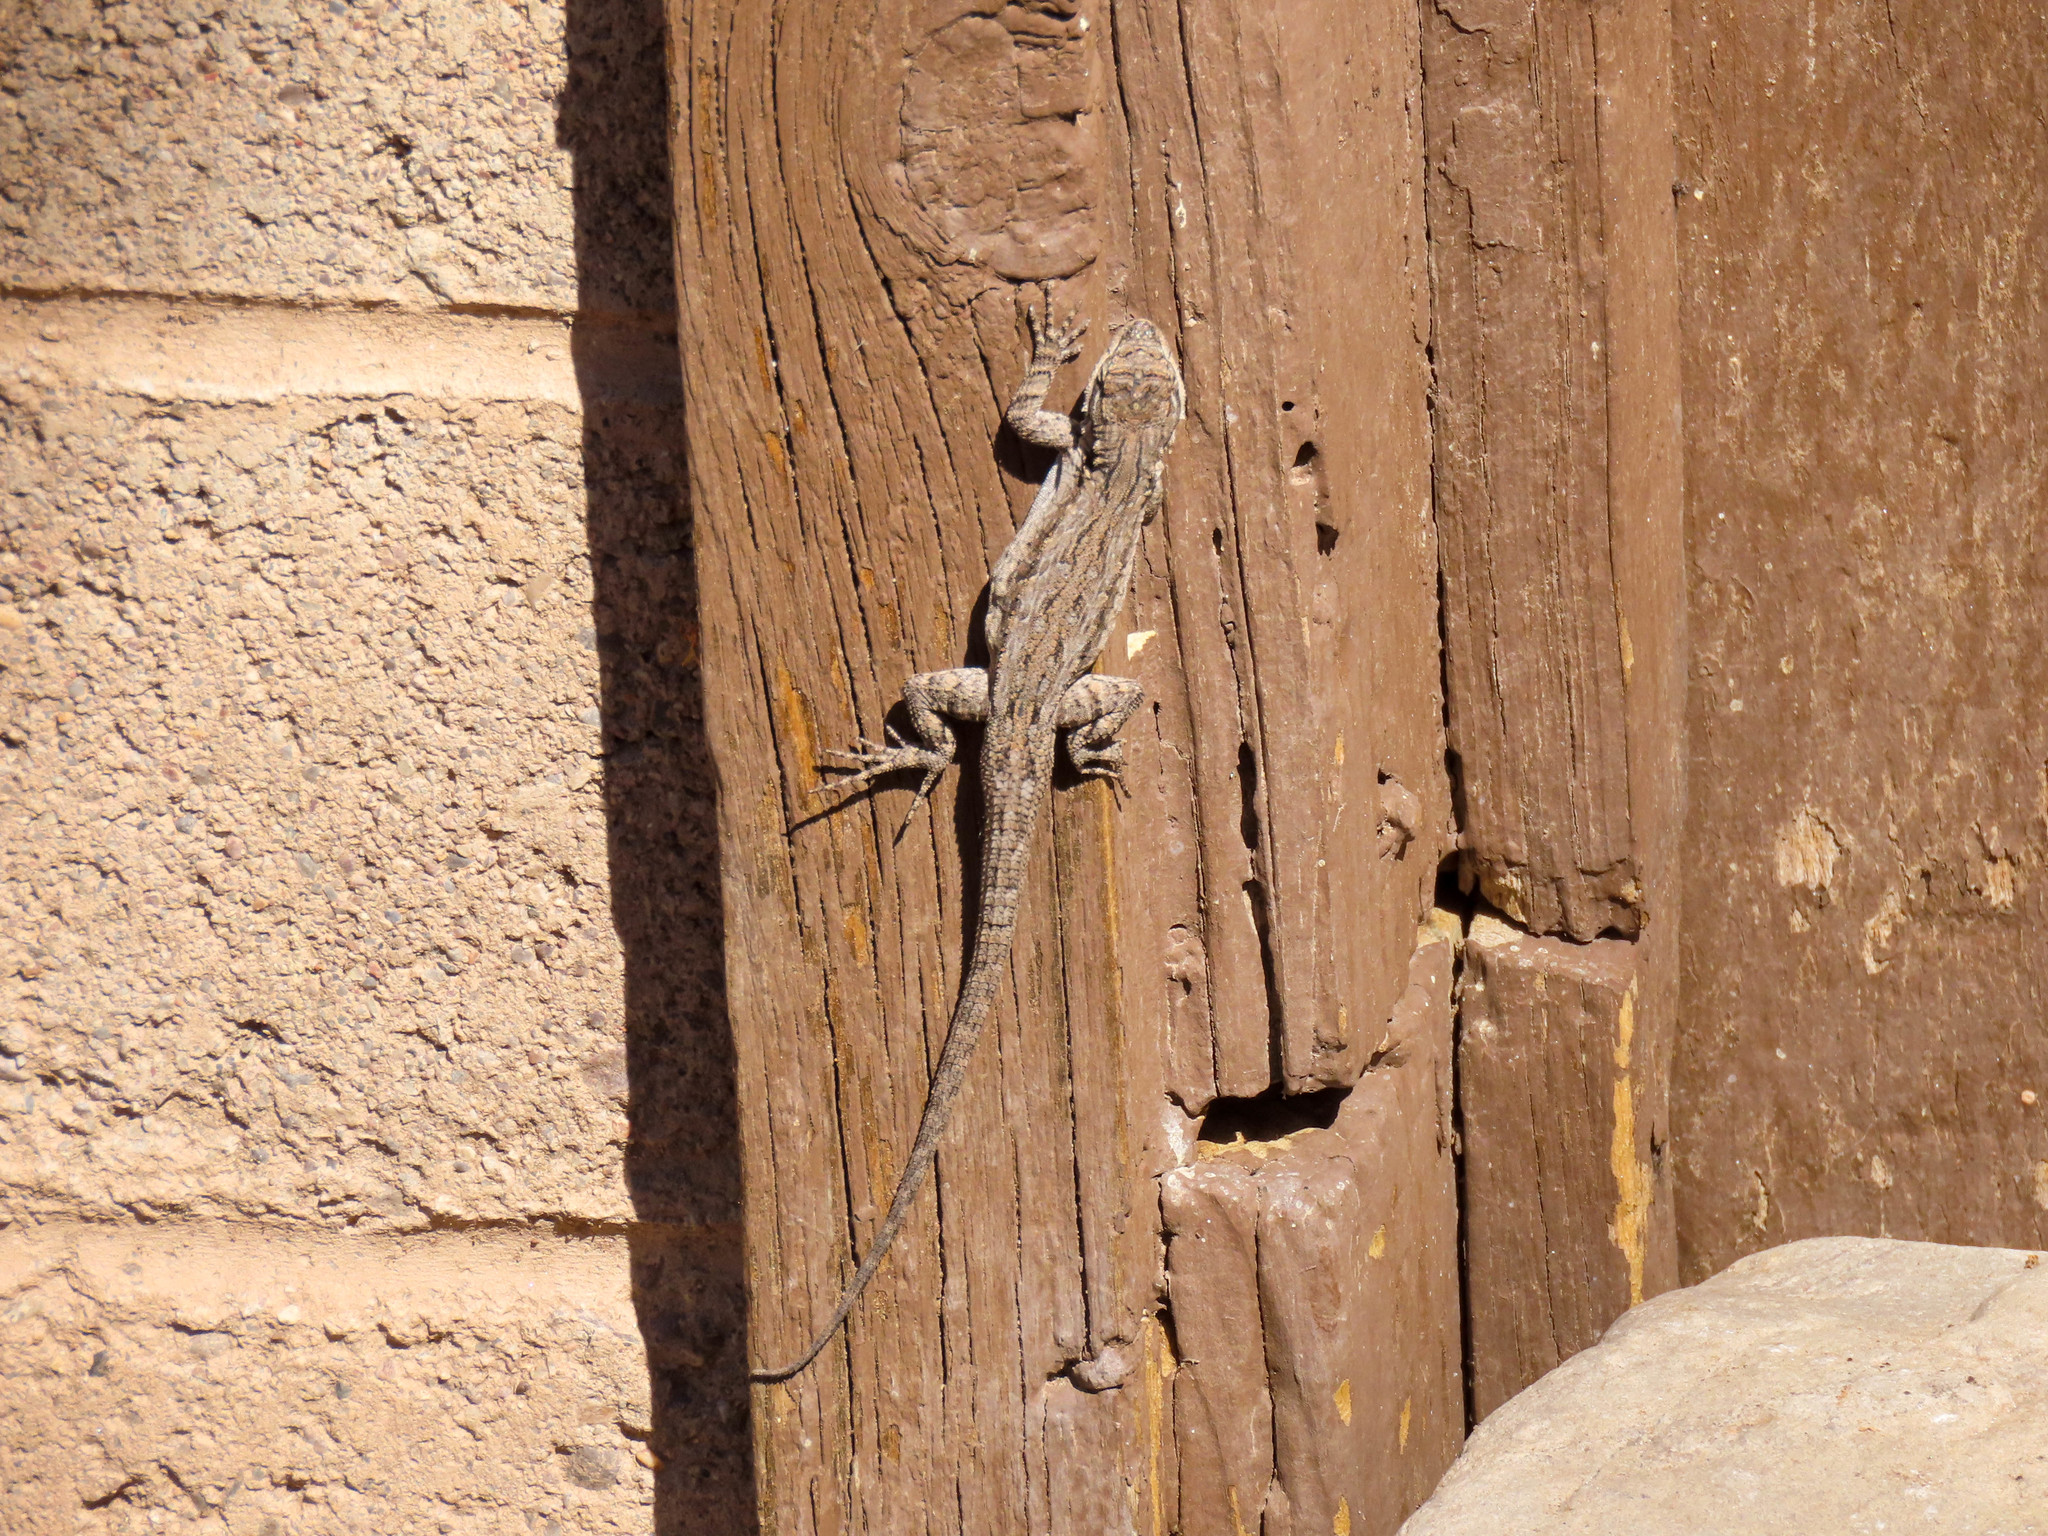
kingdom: Animalia
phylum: Chordata
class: Squamata
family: Phrynosomatidae
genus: Urosaurus
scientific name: Urosaurus ornatus
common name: Ornate tree lizard
